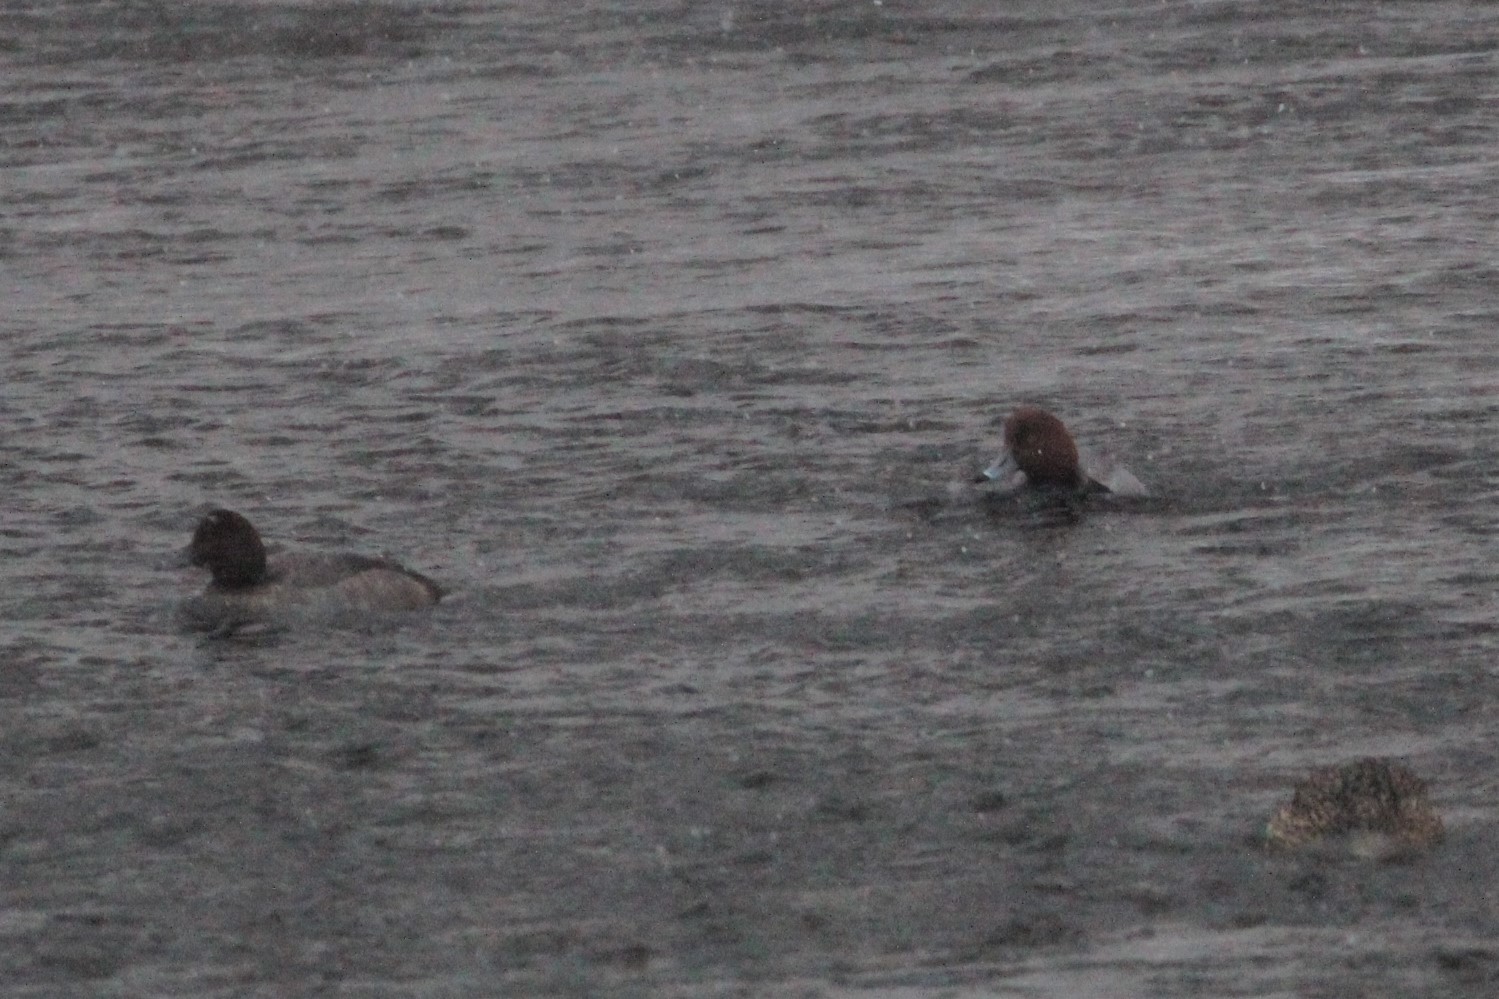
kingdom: Animalia
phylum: Chordata
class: Aves
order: Anseriformes
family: Anatidae
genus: Aythya
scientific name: Aythya americana
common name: Redhead
